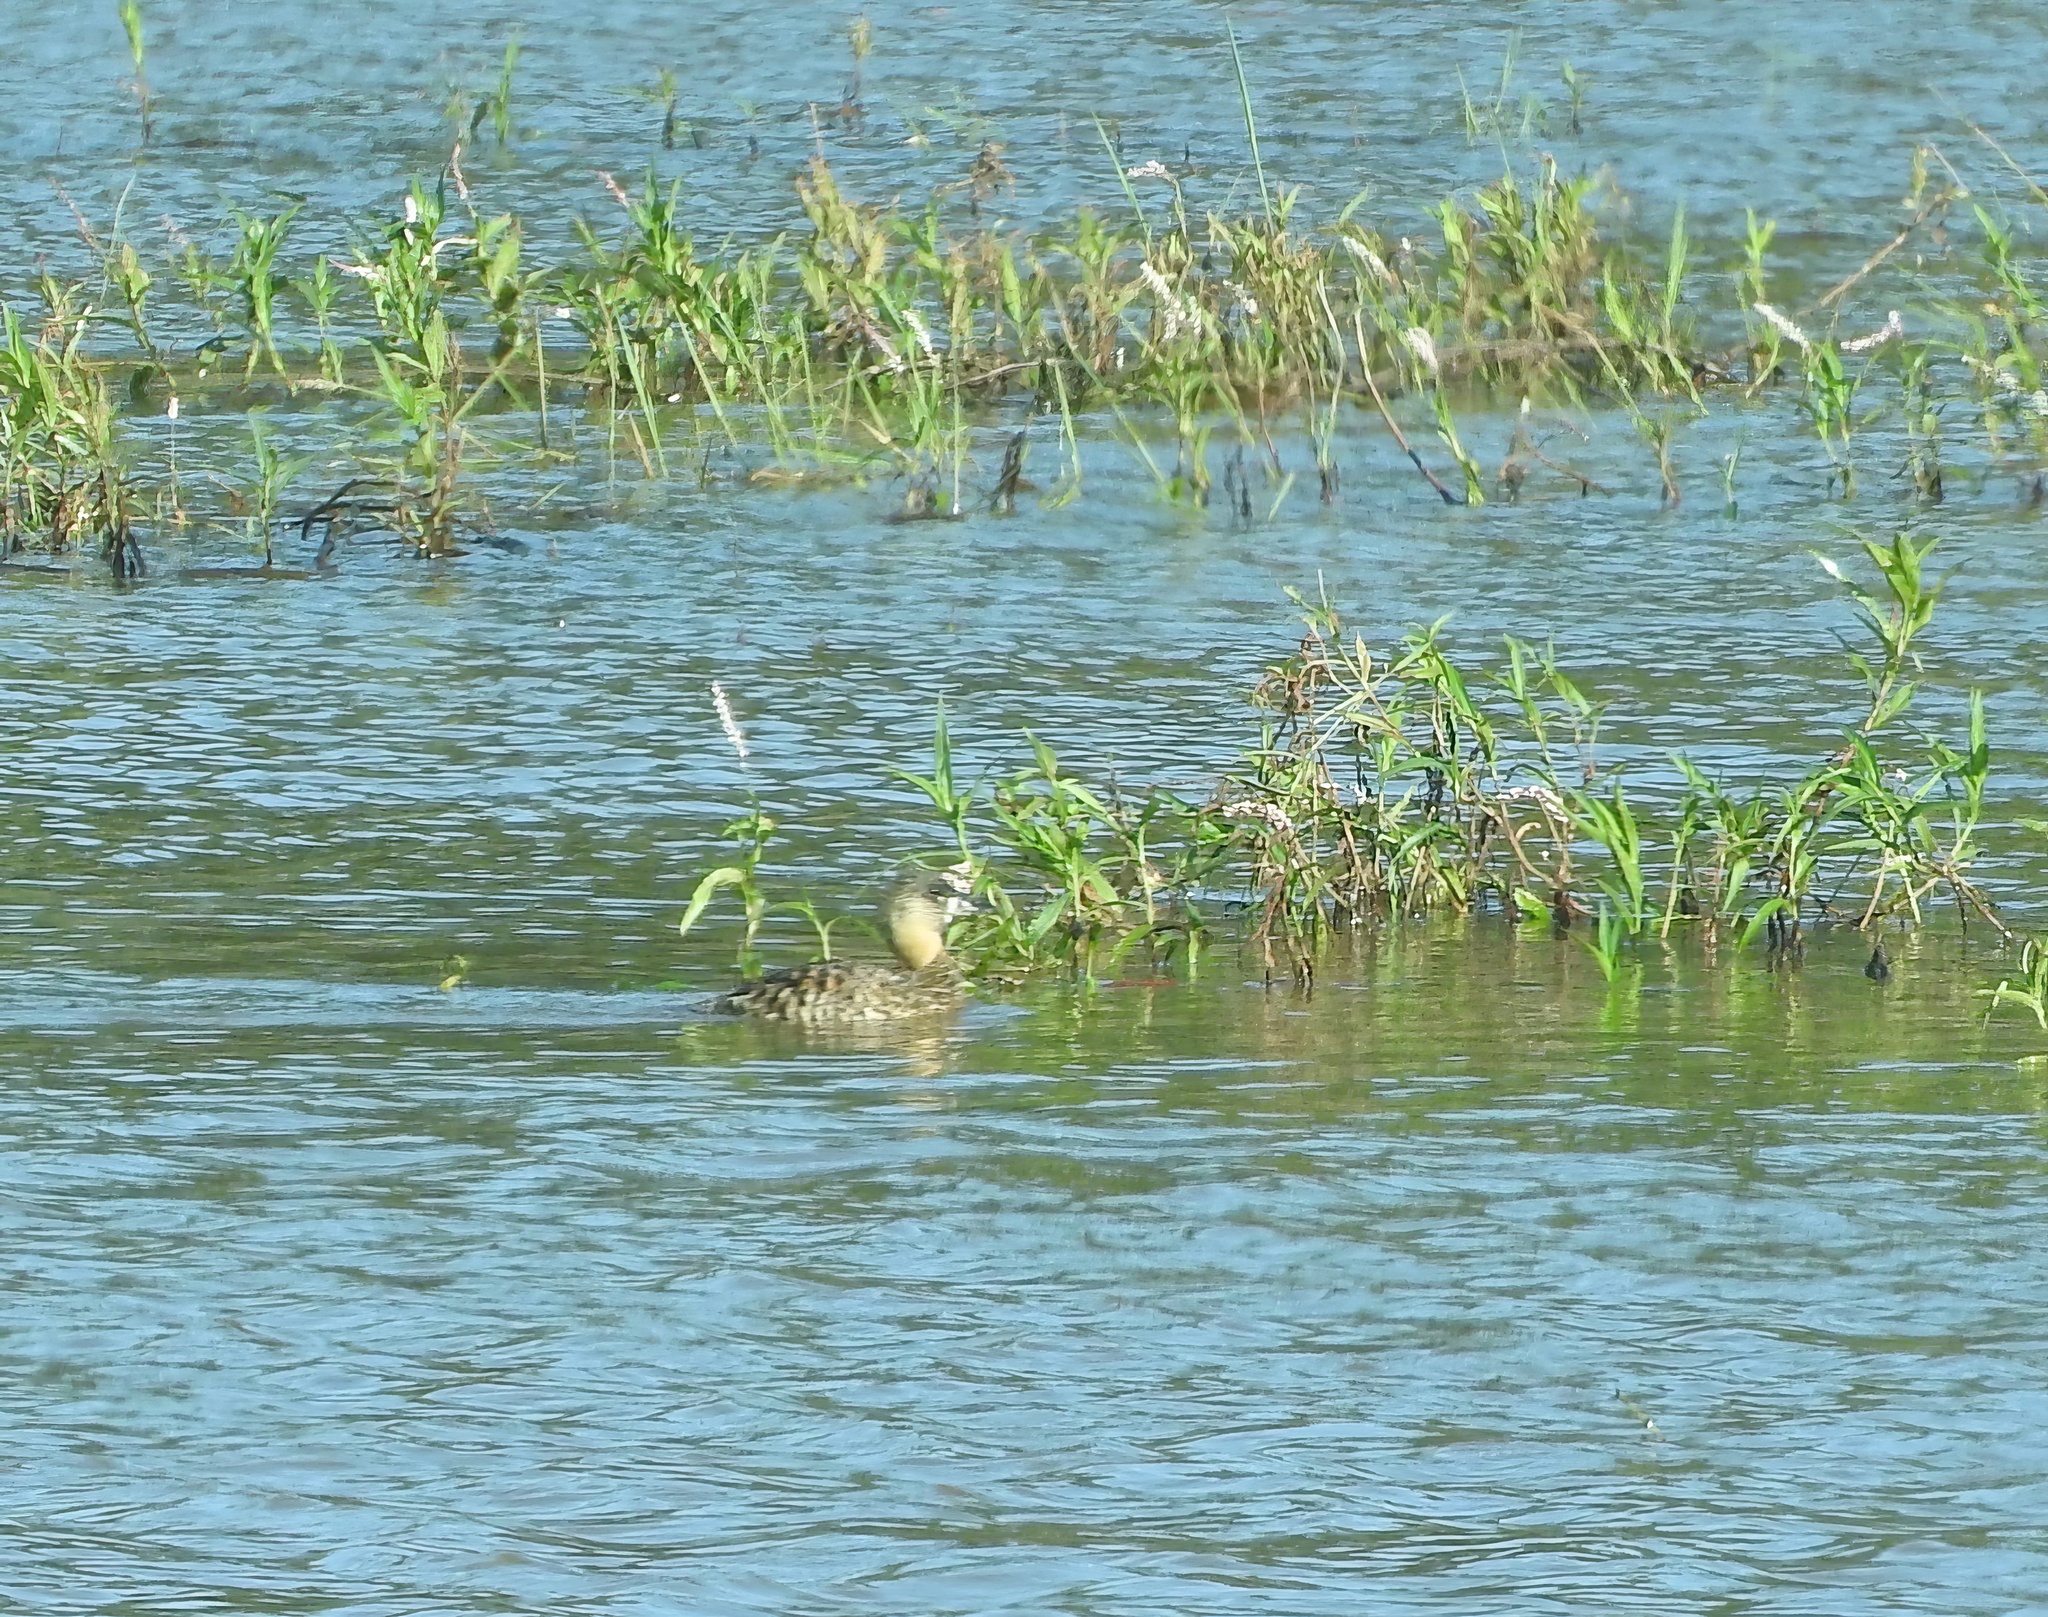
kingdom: Animalia
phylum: Chordata
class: Aves
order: Anseriformes
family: Anatidae
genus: Thalassornis
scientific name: Thalassornis leuconotus
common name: White-backed duck
